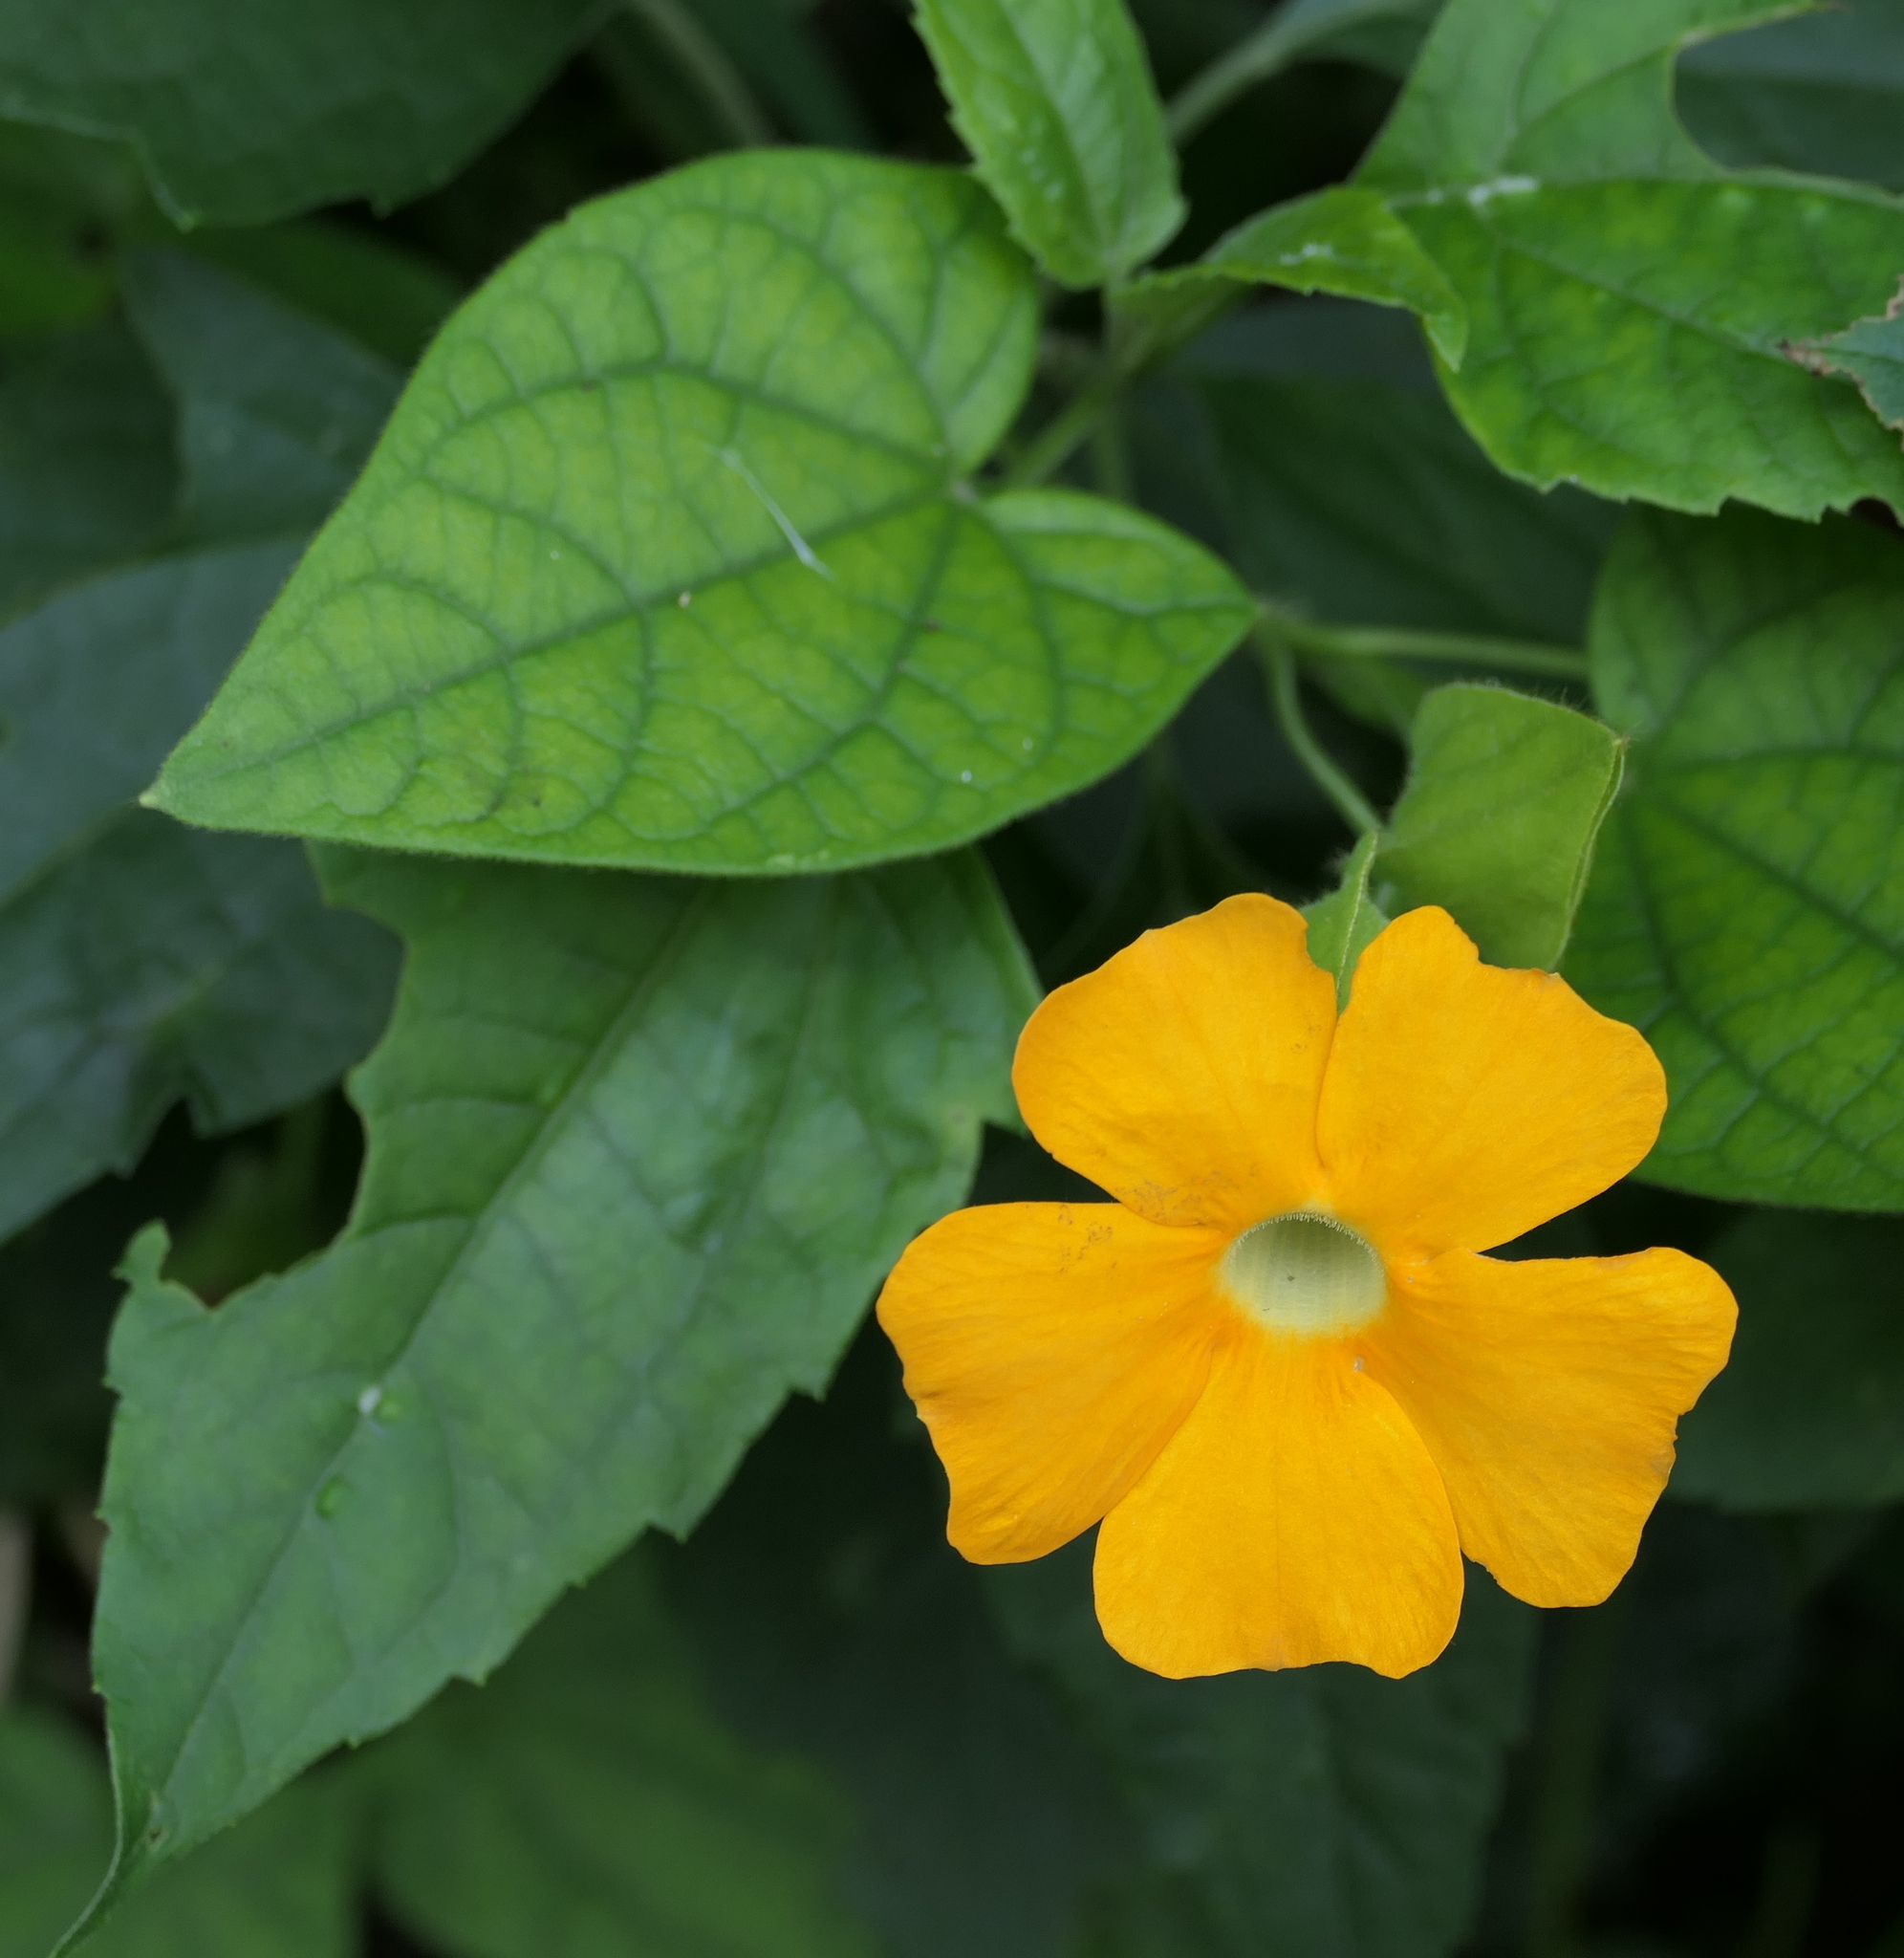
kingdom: Plantae
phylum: Tracheophyta
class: Magnoliopsida
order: Lamiales
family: Acanthaceae
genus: Thunbergia
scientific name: Thunbergia alata
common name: Blackeyed susan vine
